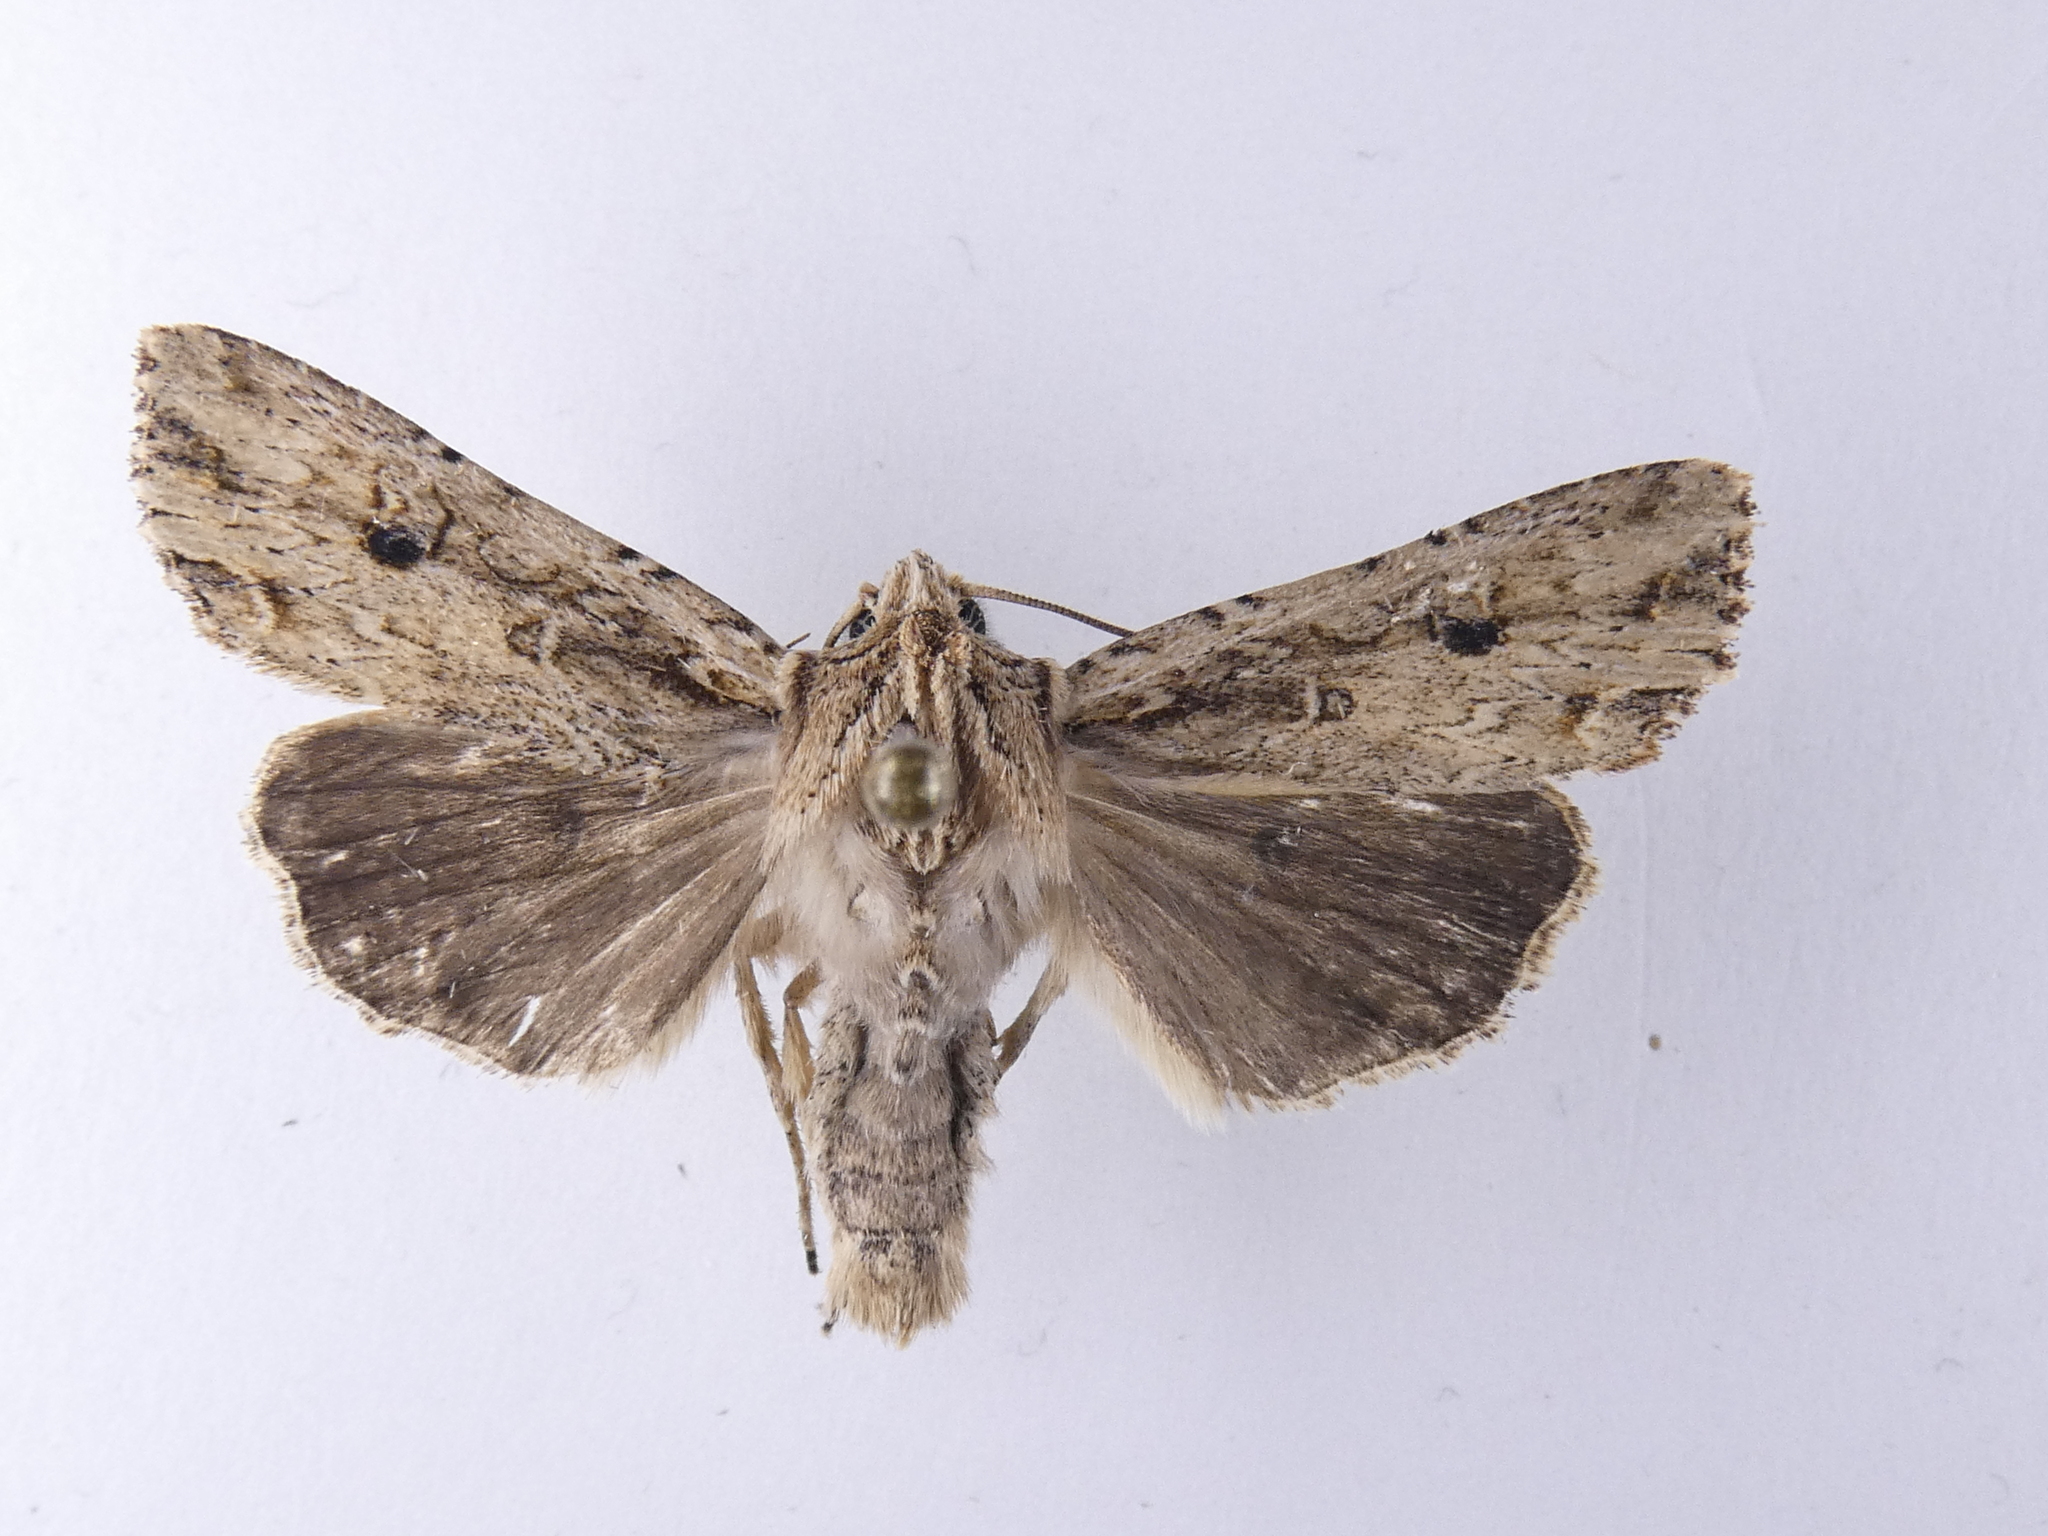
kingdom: Animalia
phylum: Arthropoda
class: Insecta
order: Lepidoptera
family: Noctuidae
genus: Ichneutica
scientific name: Ichneutica lignana
